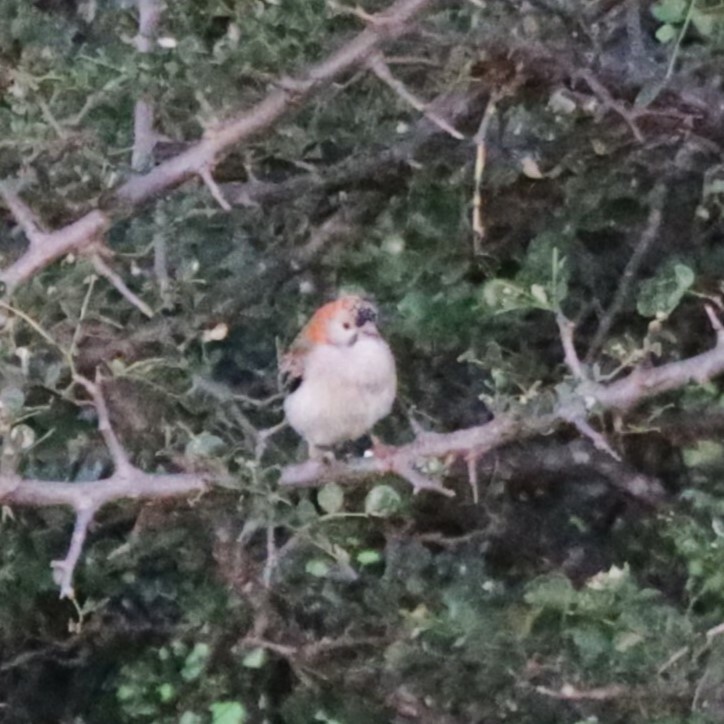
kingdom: Animalia
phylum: Chordata
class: Aves
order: Passeriformes
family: Ploceidae
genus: Sporopipes
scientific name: Sporopipes frontalis
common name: Speckle-fronted weaver
